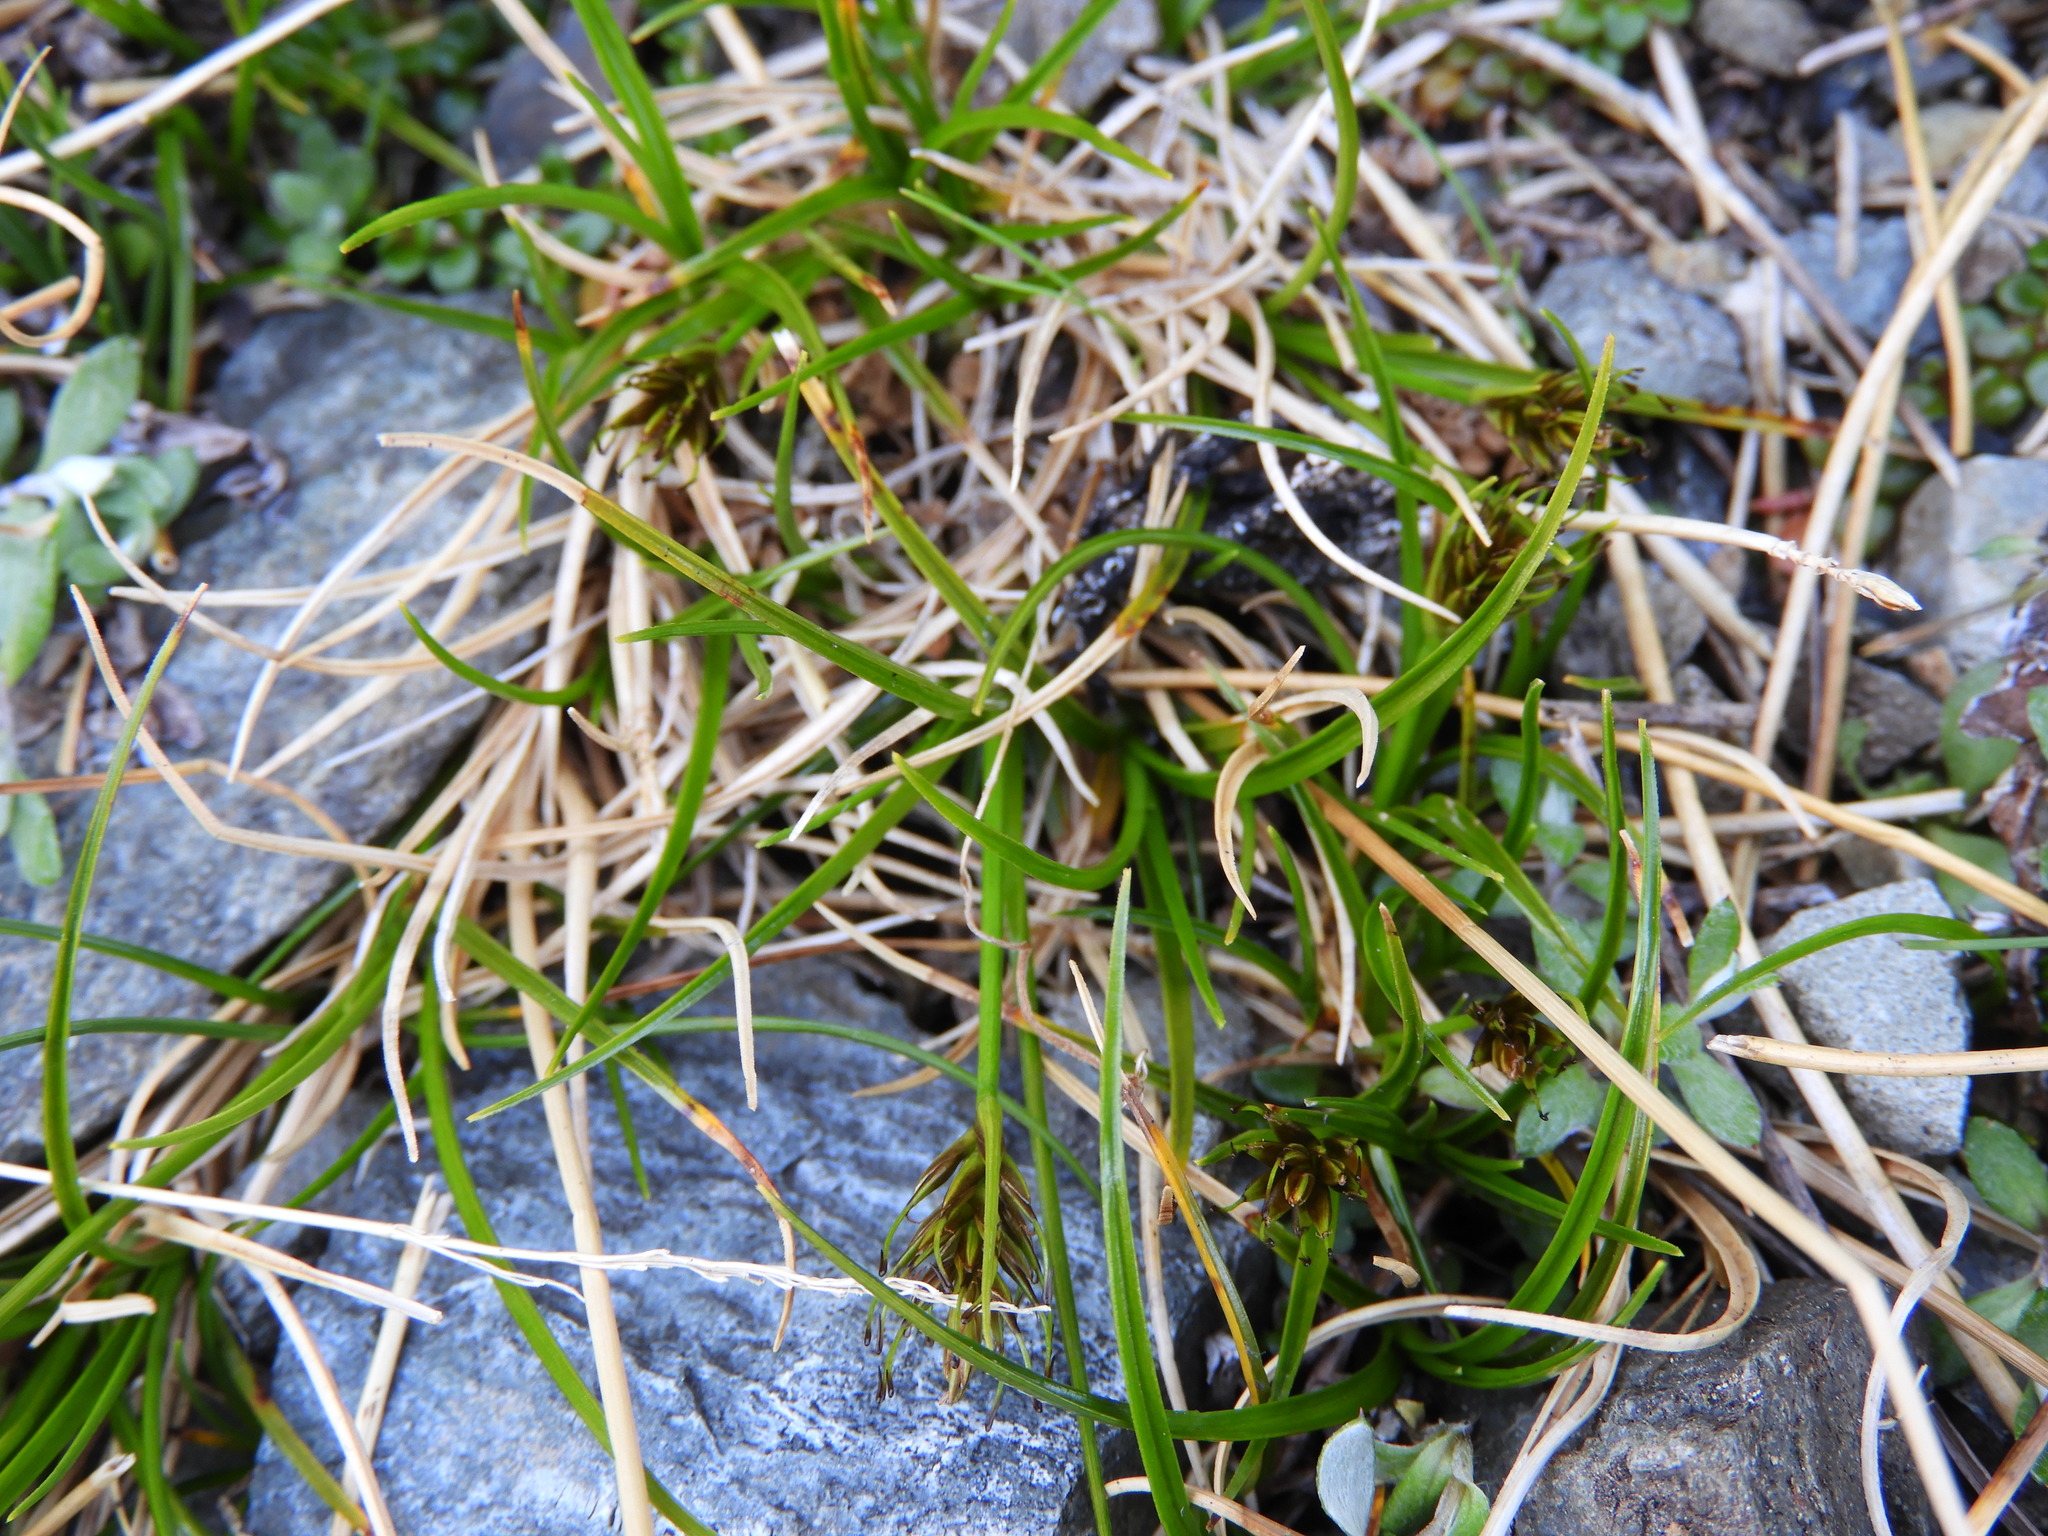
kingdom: Plantae
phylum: Tracheophyta
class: Liliopsida
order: Poales
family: Cyperaceae
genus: Carex
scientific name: Carex drucei
